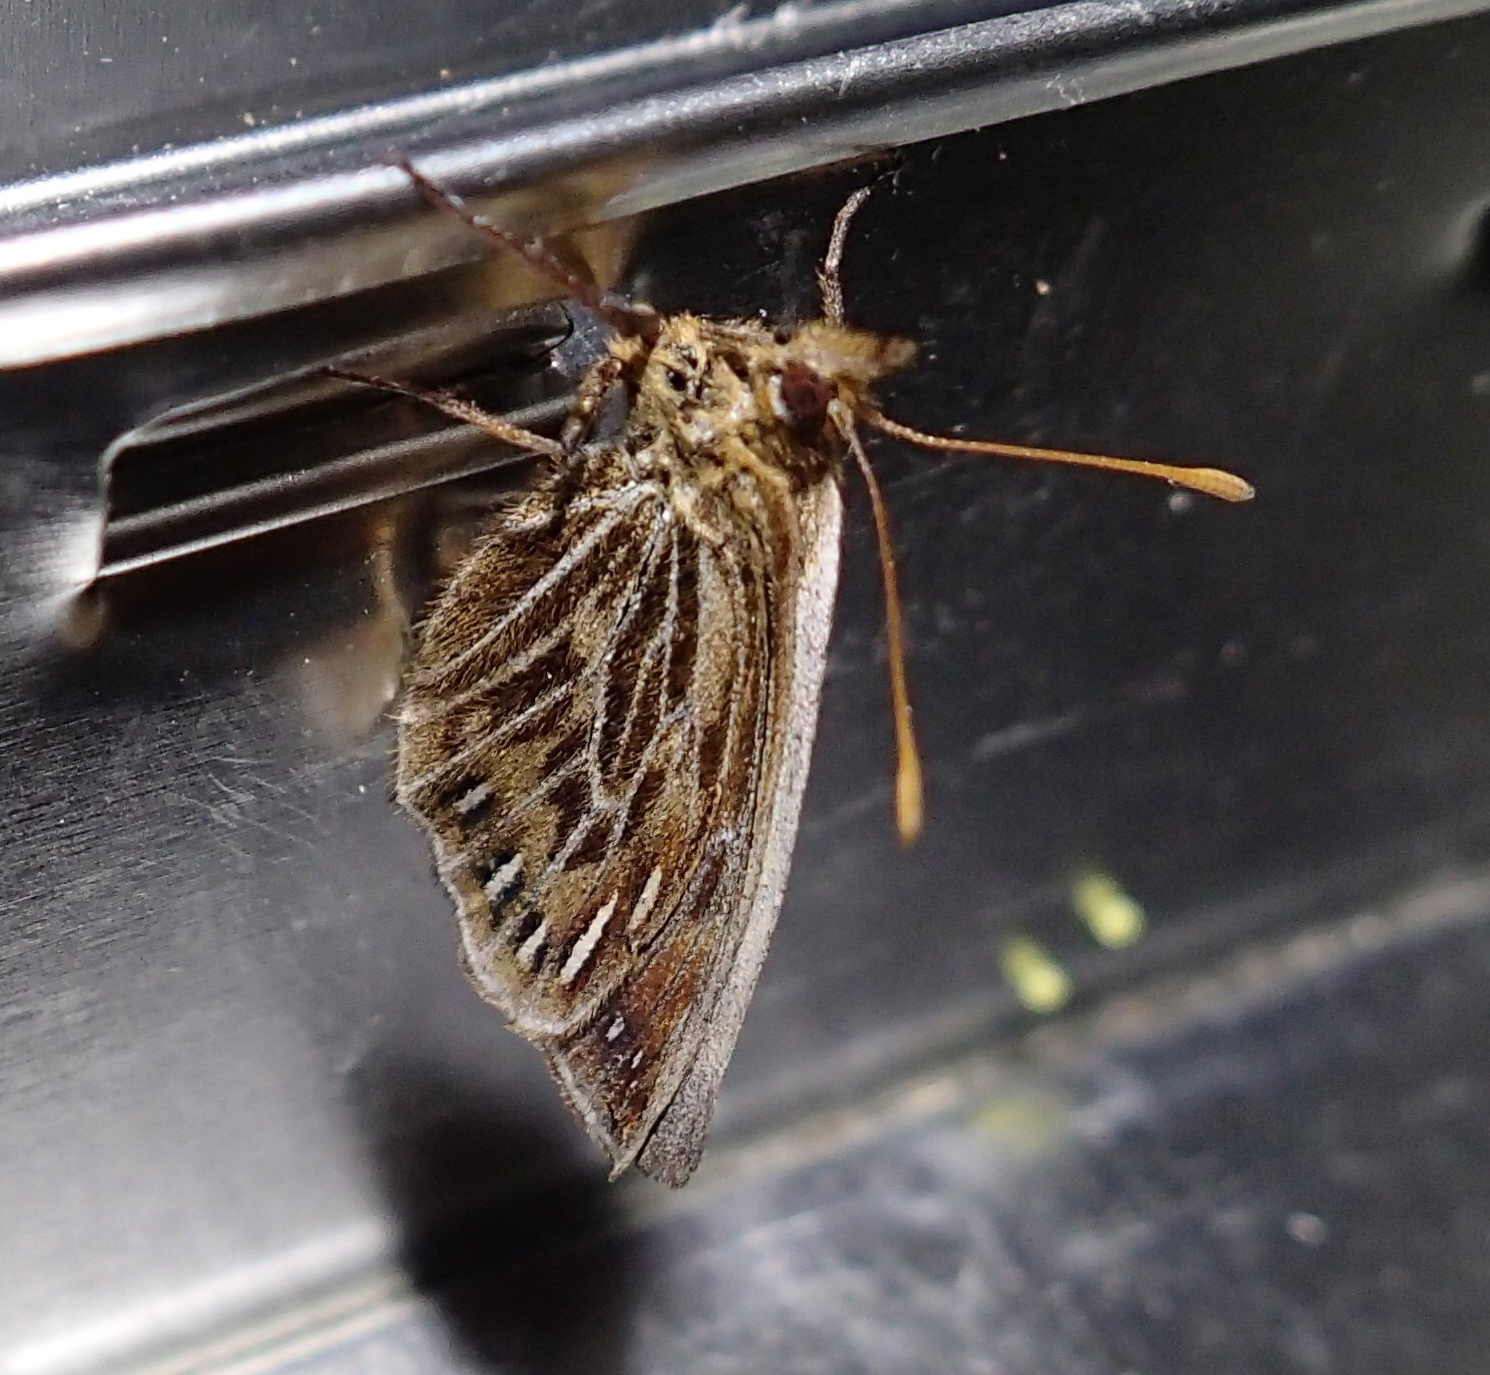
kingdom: Animalia
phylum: Arthropoda
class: Insecta
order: Lepidoptera
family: Nymphalidae
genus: Altopedaliodes
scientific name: Altopedaliodes
